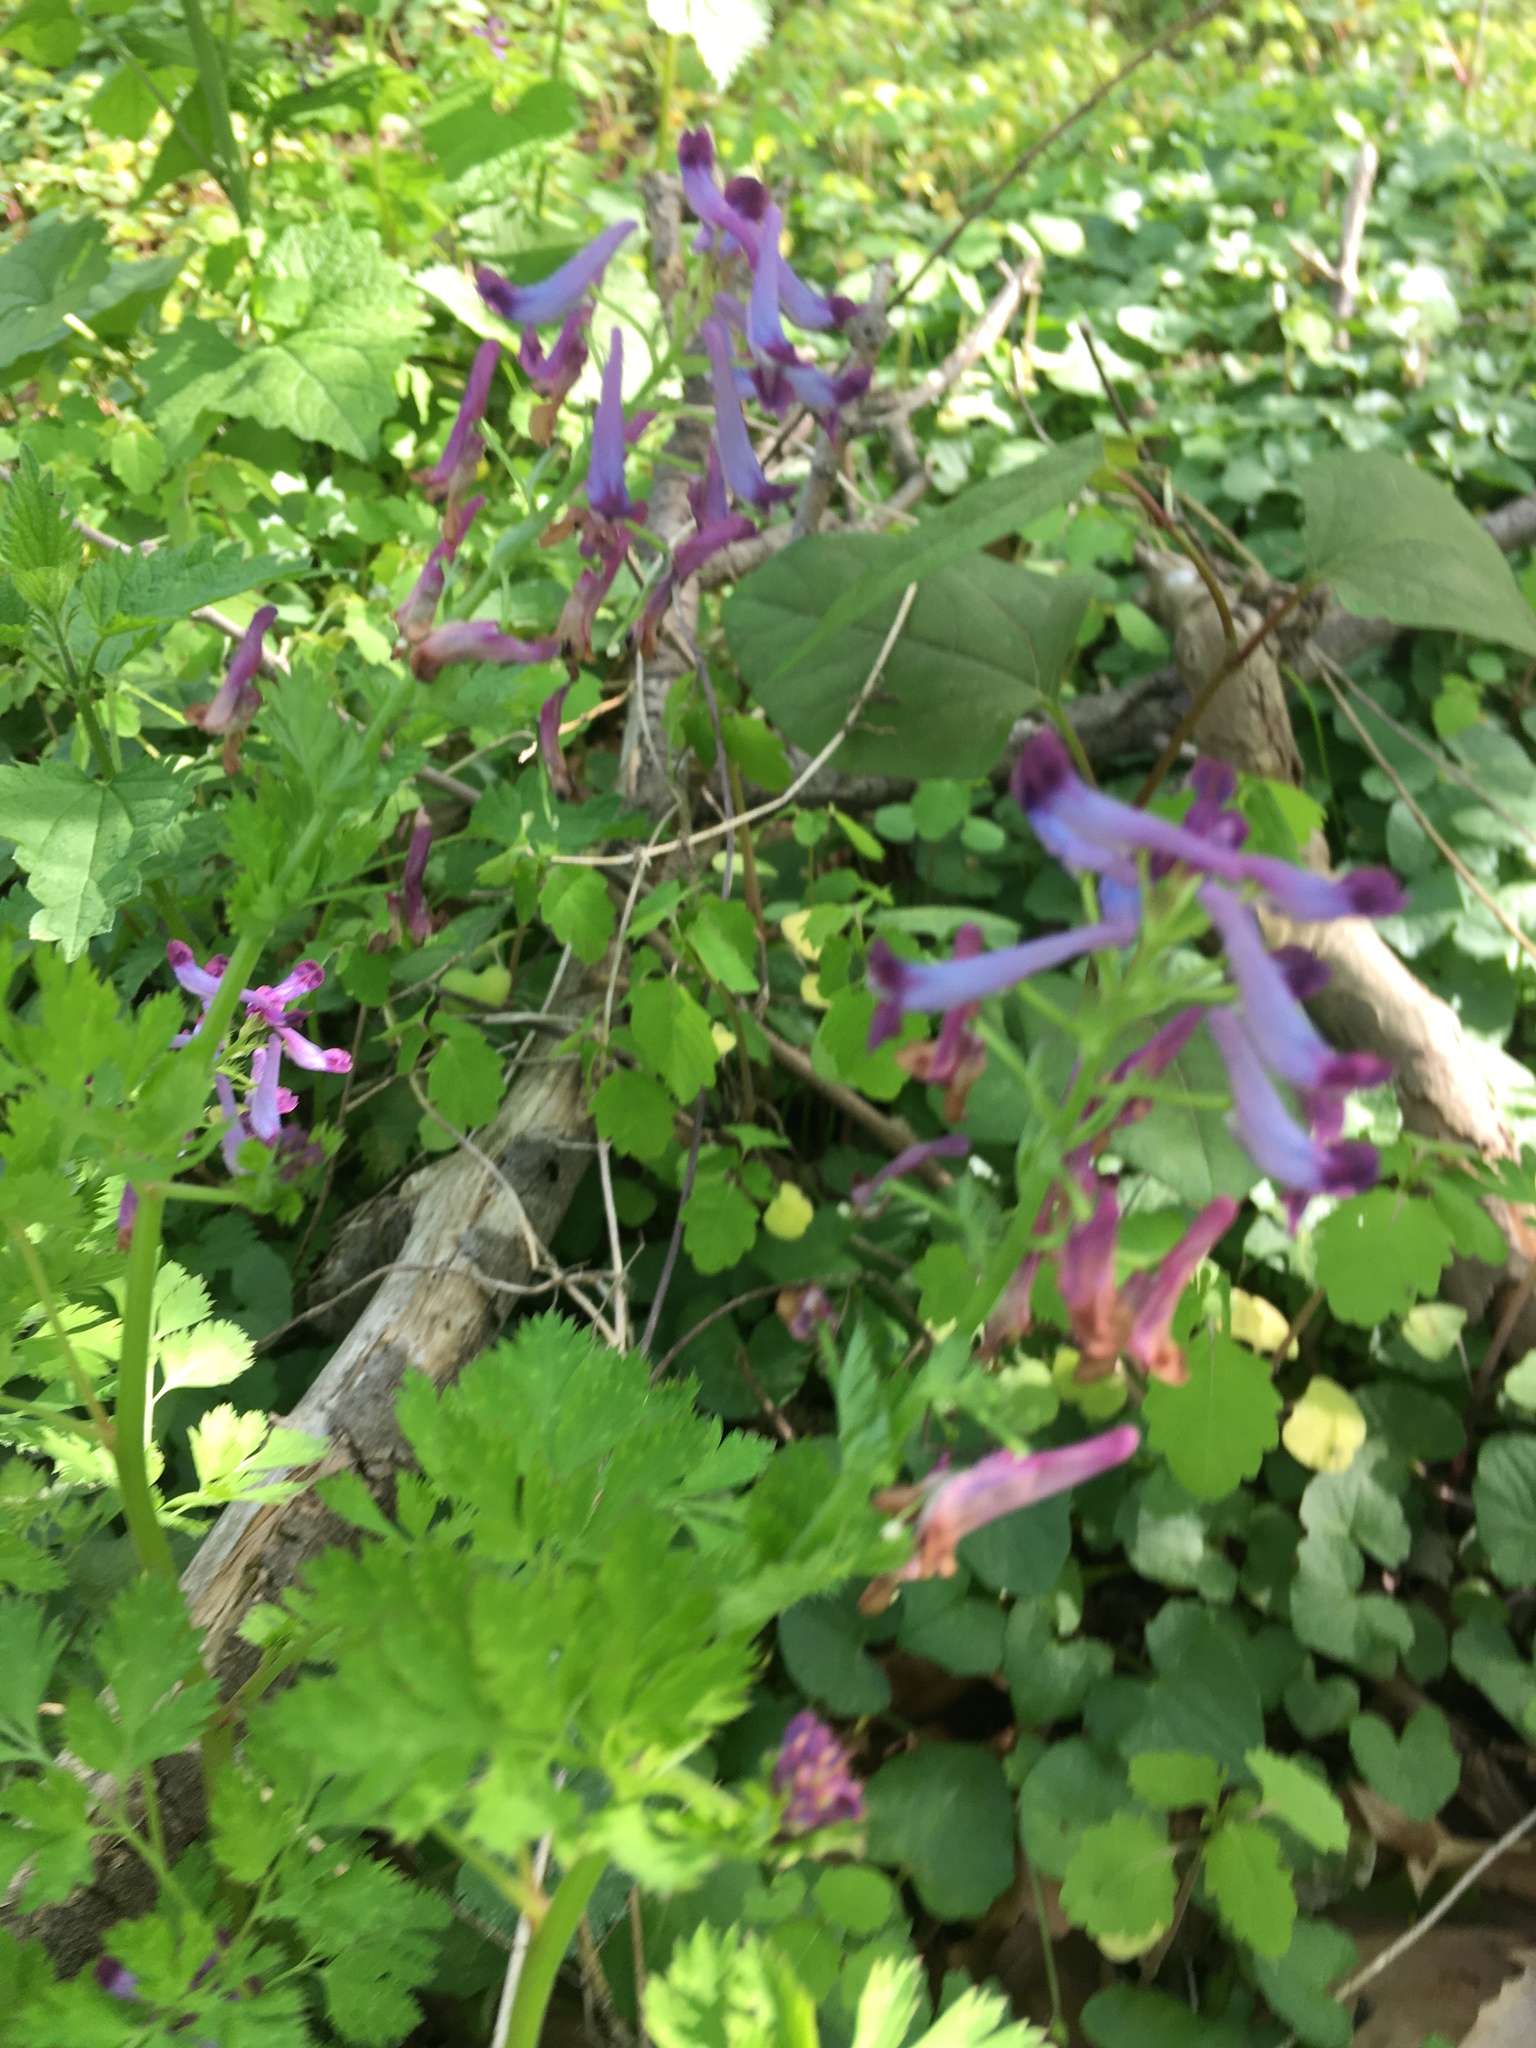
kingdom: Plantae
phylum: Tracheophyta
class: Magnoliopsida
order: Ranunculales
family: Papaveraceae
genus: Corydalis
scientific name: Corydalis incisa
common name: Incised fumewort
